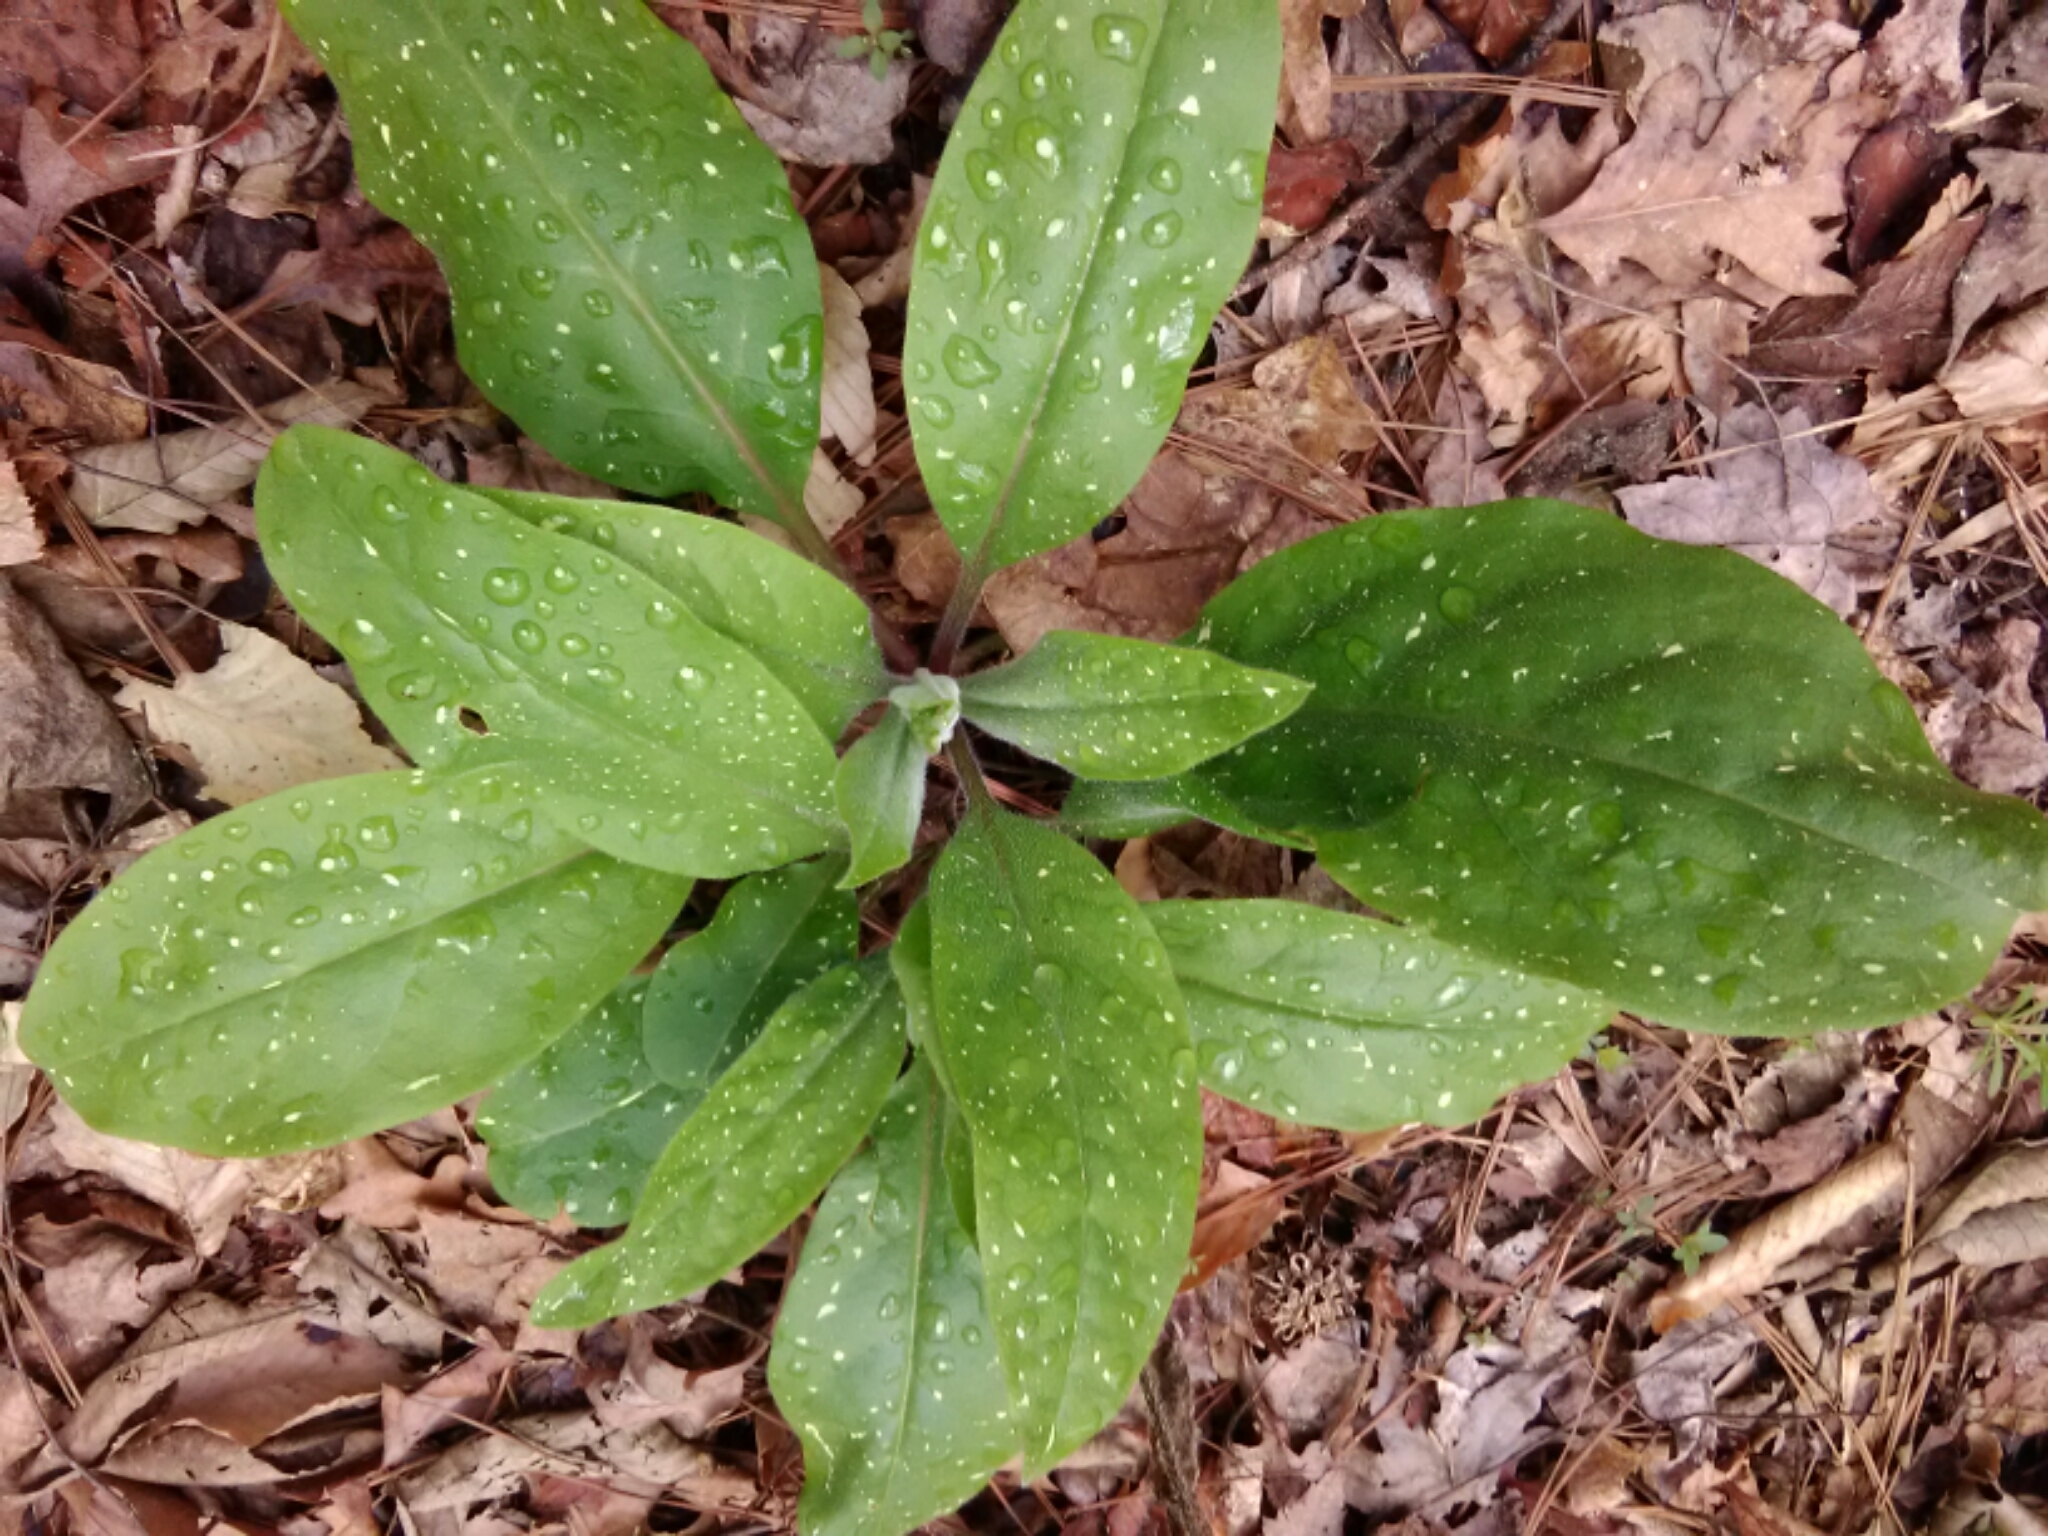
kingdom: Plantae
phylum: Tracheophyta
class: Magnoliopsida
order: Boraginales
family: Boraginaceae
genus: Andersonglossum
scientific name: Andersonglossum virginianum
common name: Wild comfrey
